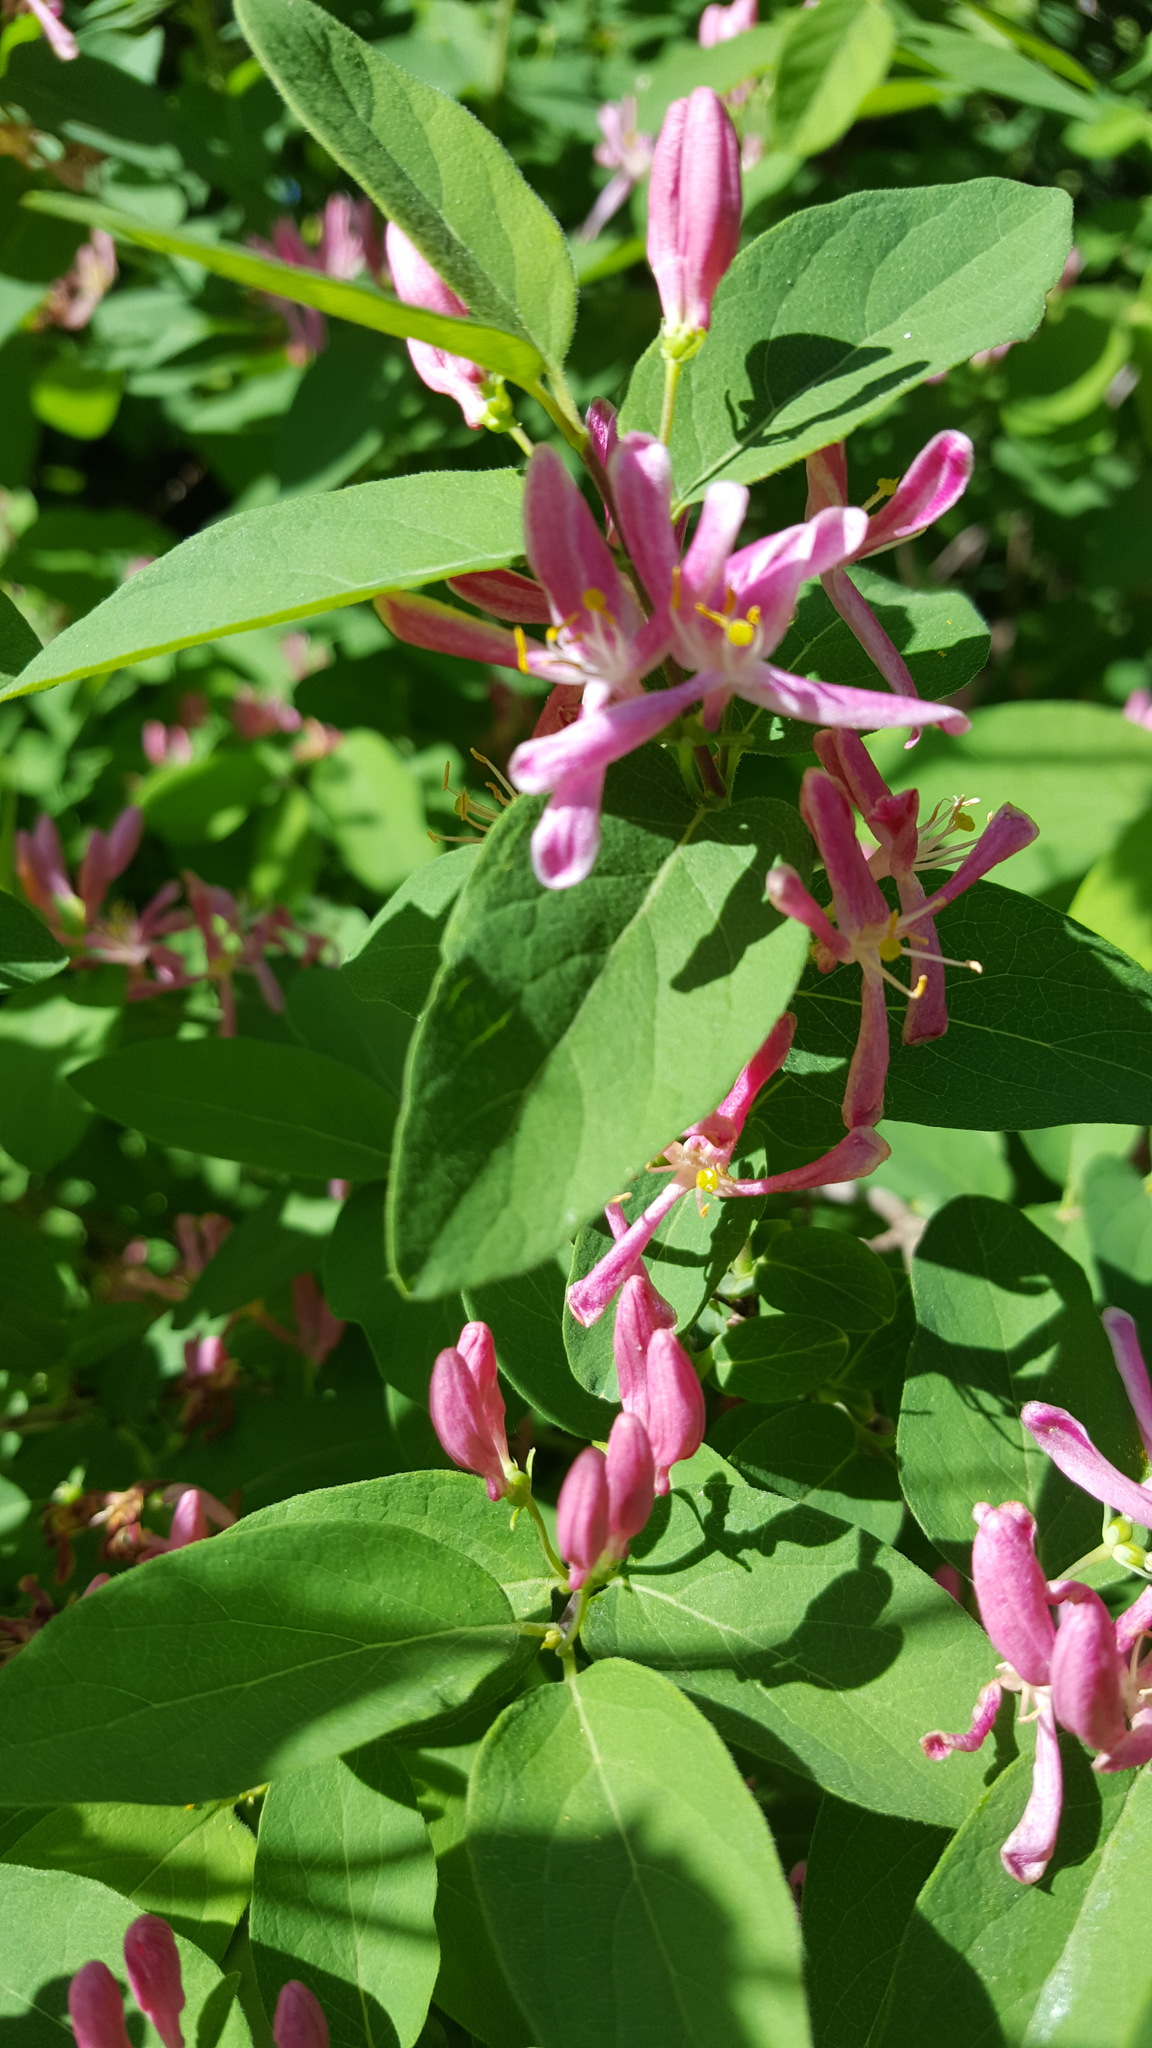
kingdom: Plantae
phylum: Tracheophyta
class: Magnoliopsida
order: Dipsacales
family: Caprifoliaceae
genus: Lonicera
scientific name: Lonicera tatarica
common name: Tatarian honeysuckle
